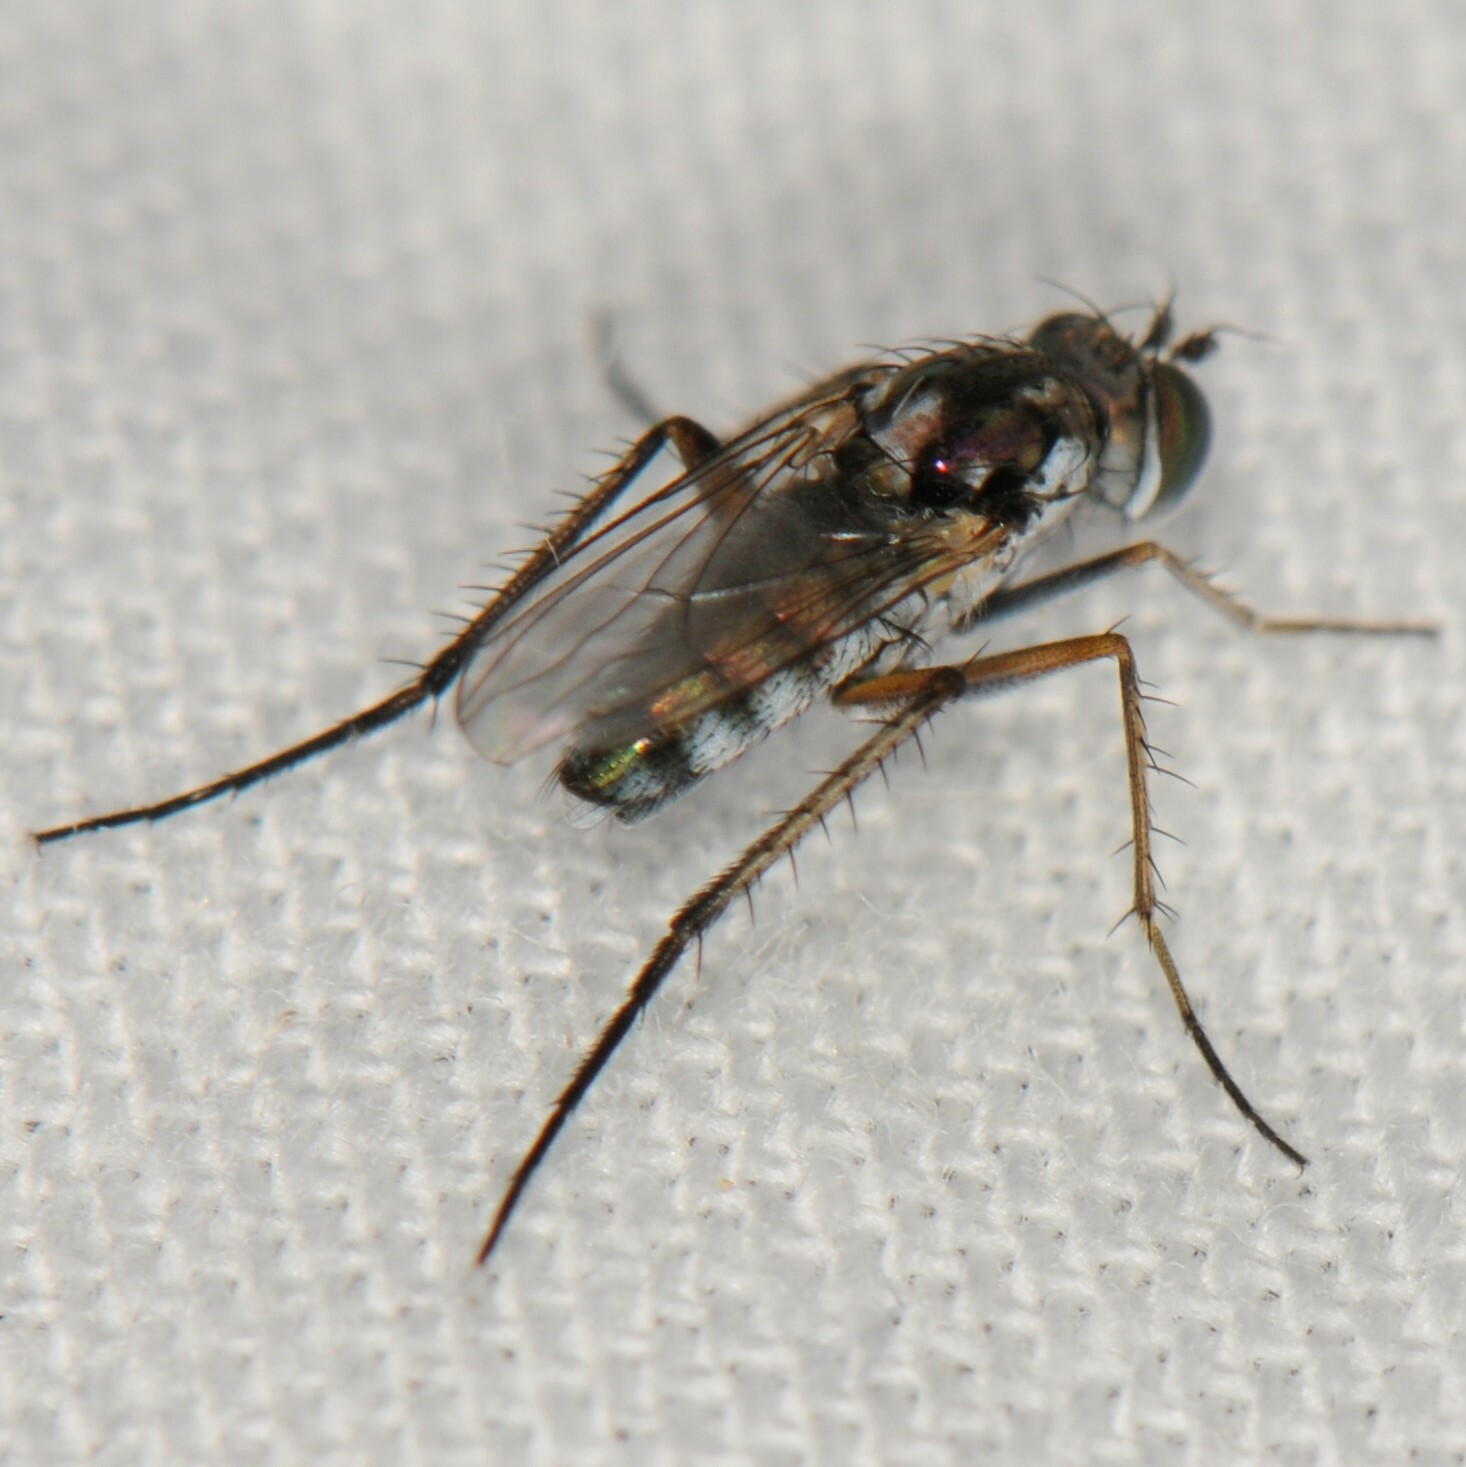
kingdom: Animalia
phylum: Arthropoda
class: Insecta
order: Diptera
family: Dolichopodidae
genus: Tachytrechus
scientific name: Tachytrechus
